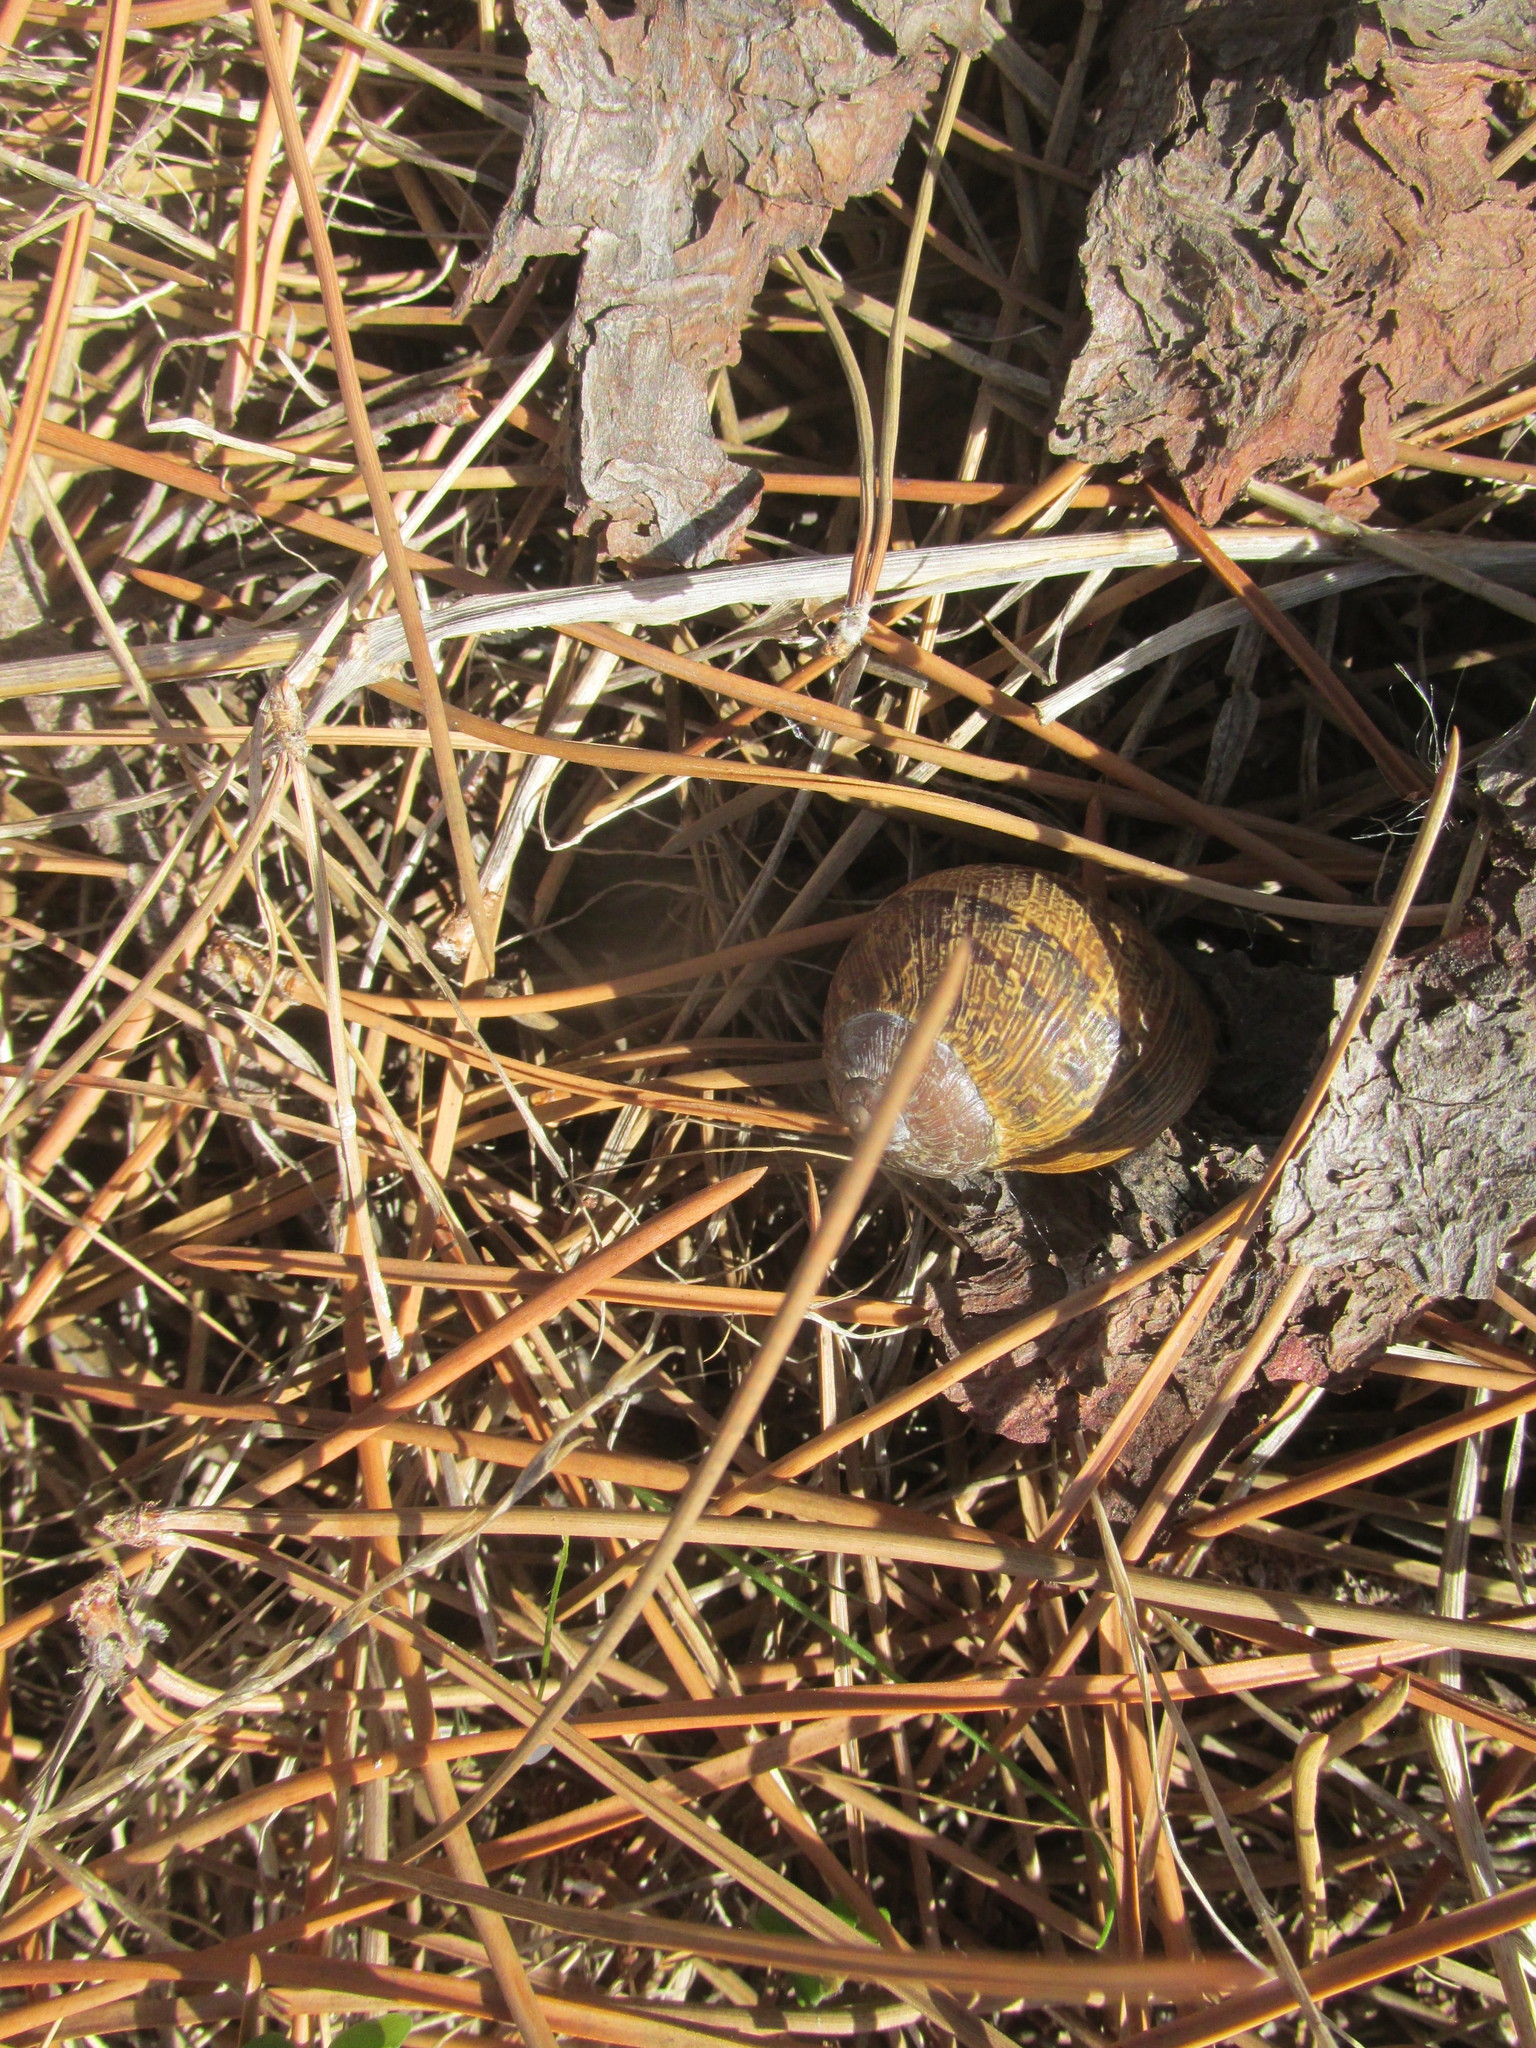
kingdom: Animalia
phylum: Mollusca
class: Gastropoda
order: Stylommatophora
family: Helicidae
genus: Cornu
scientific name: Cornu aspersum
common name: Brown garden snail
